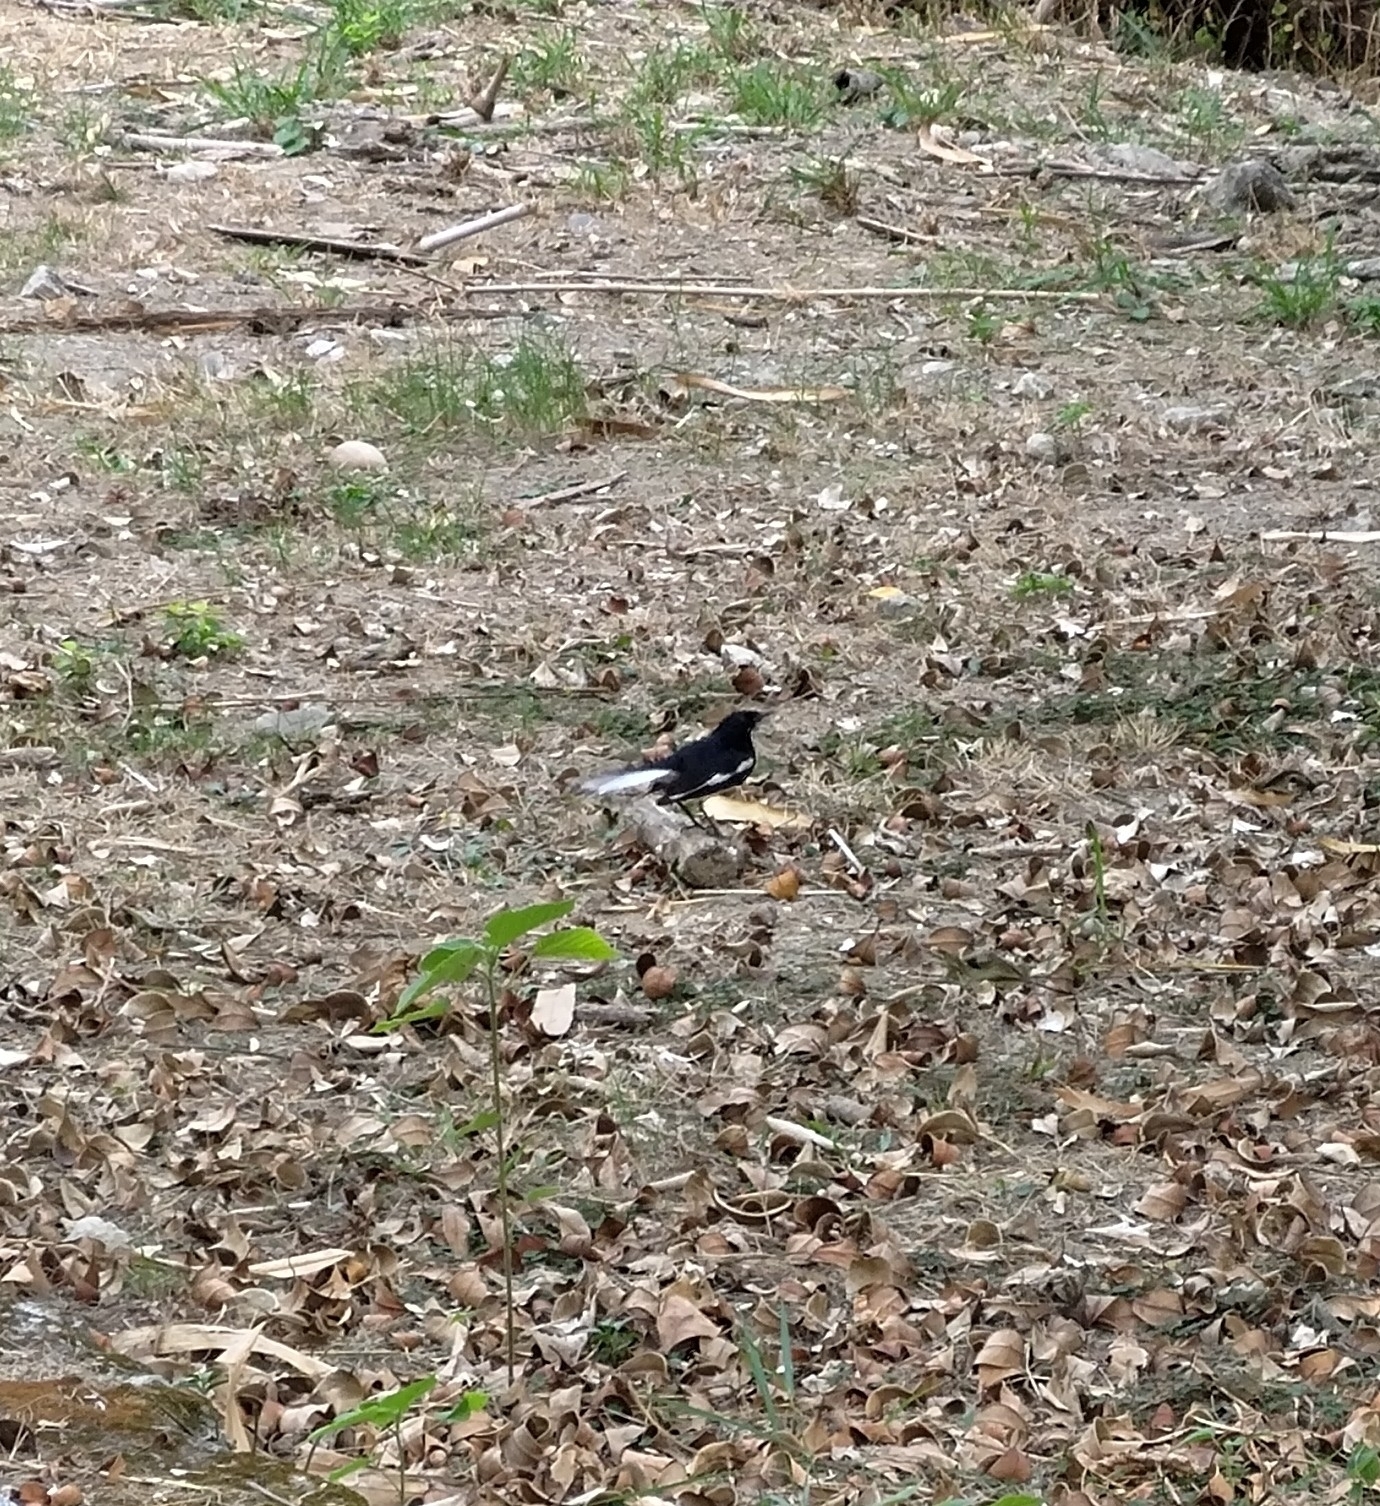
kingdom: Animalia
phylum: Chordata
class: Aves
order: Passeriformes
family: Muscicapidae
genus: Copsychus
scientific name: Copsychus saularis
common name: Oriental magpie-robin
